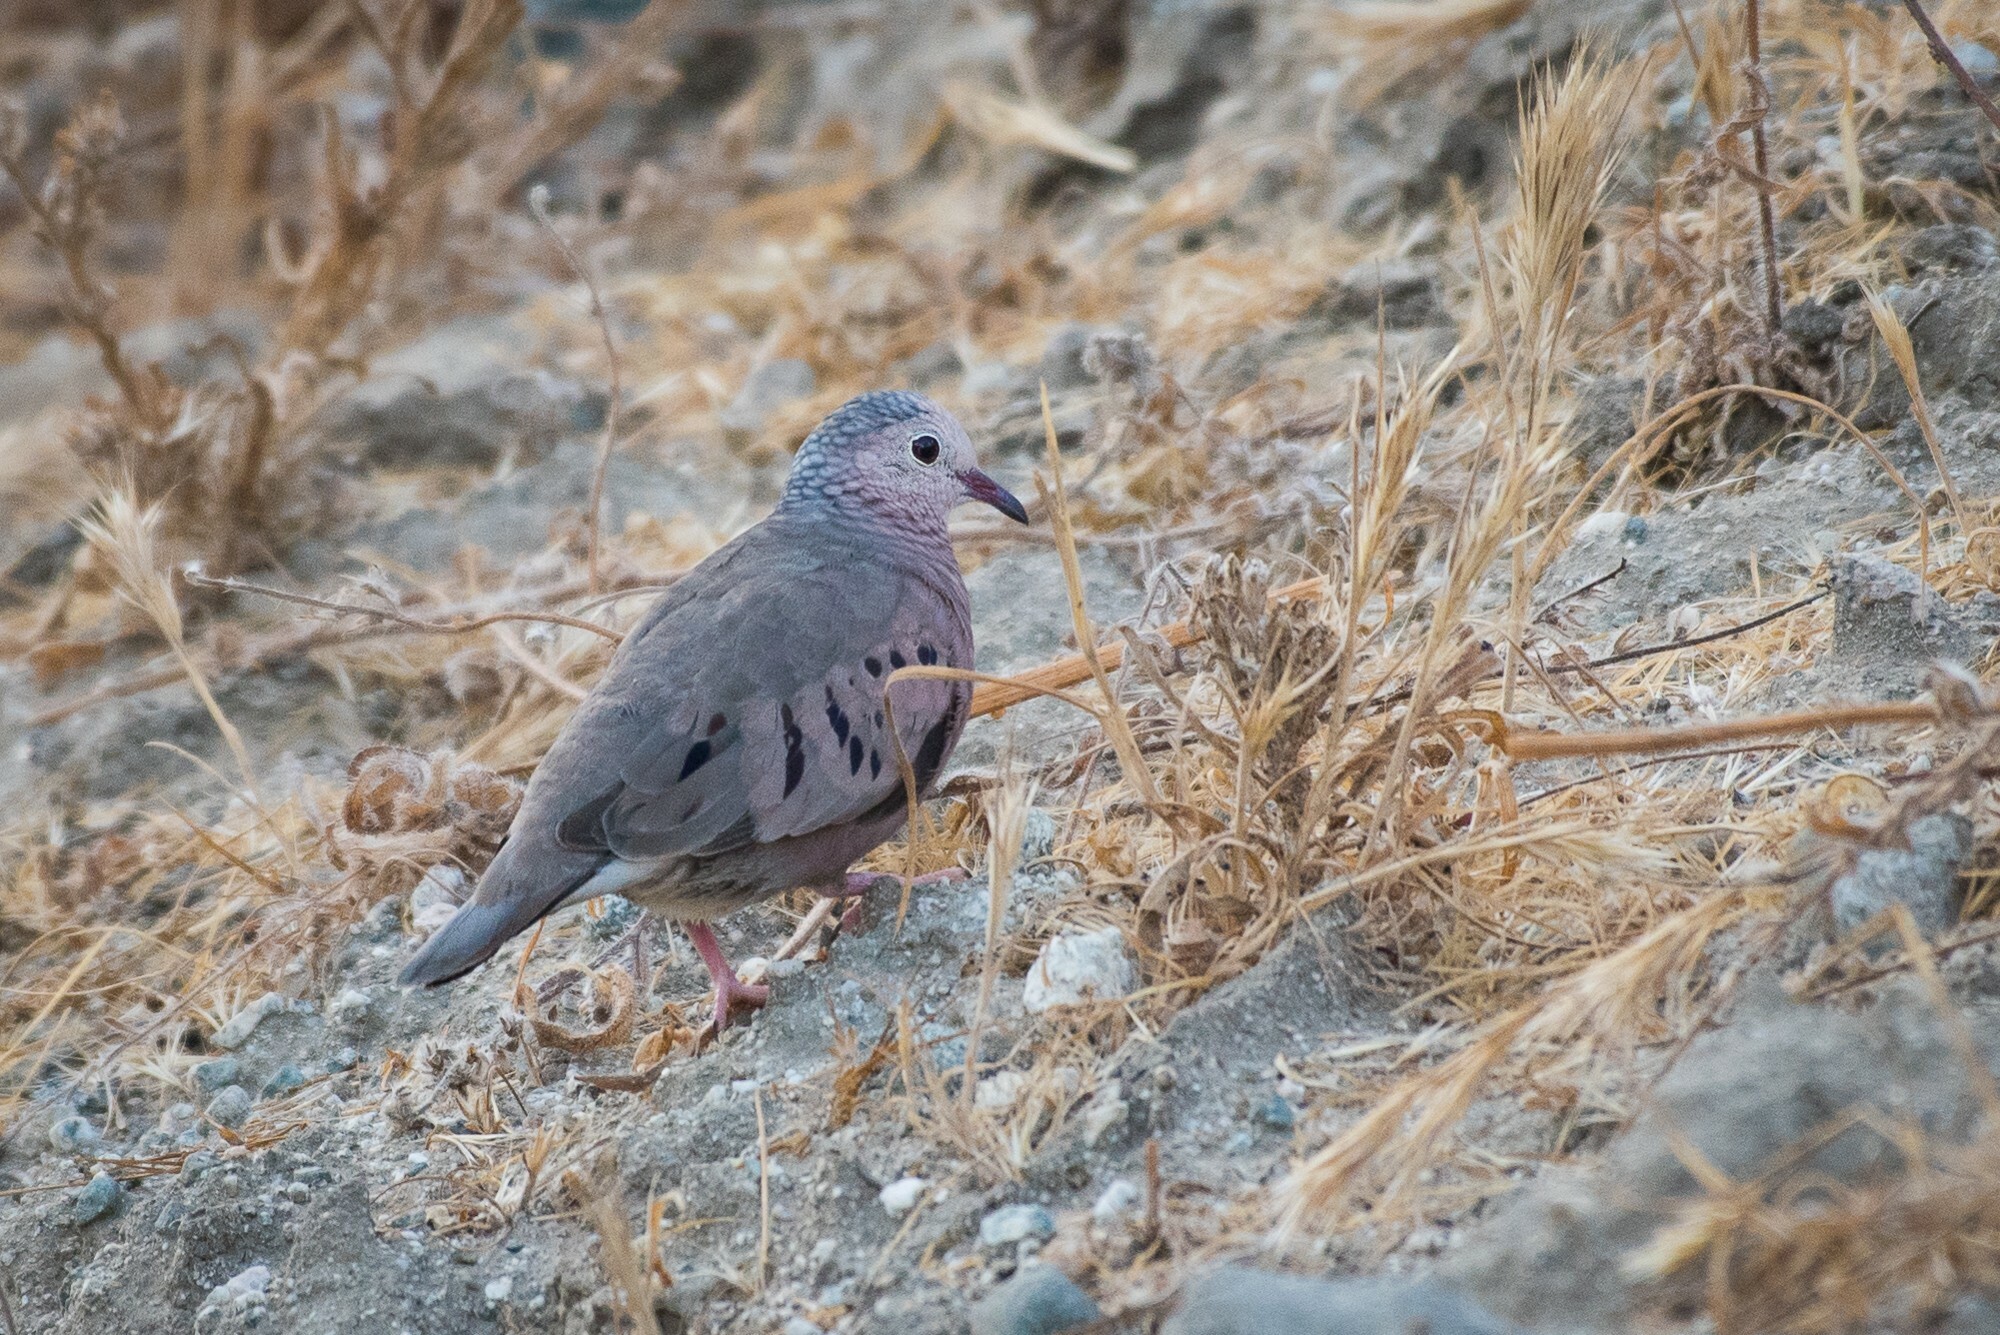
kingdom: Animalia
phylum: Chordata
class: Aves
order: Columbiformes
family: Columbidae
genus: Columbina
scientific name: Columbina passerina
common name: Common ground-dove
